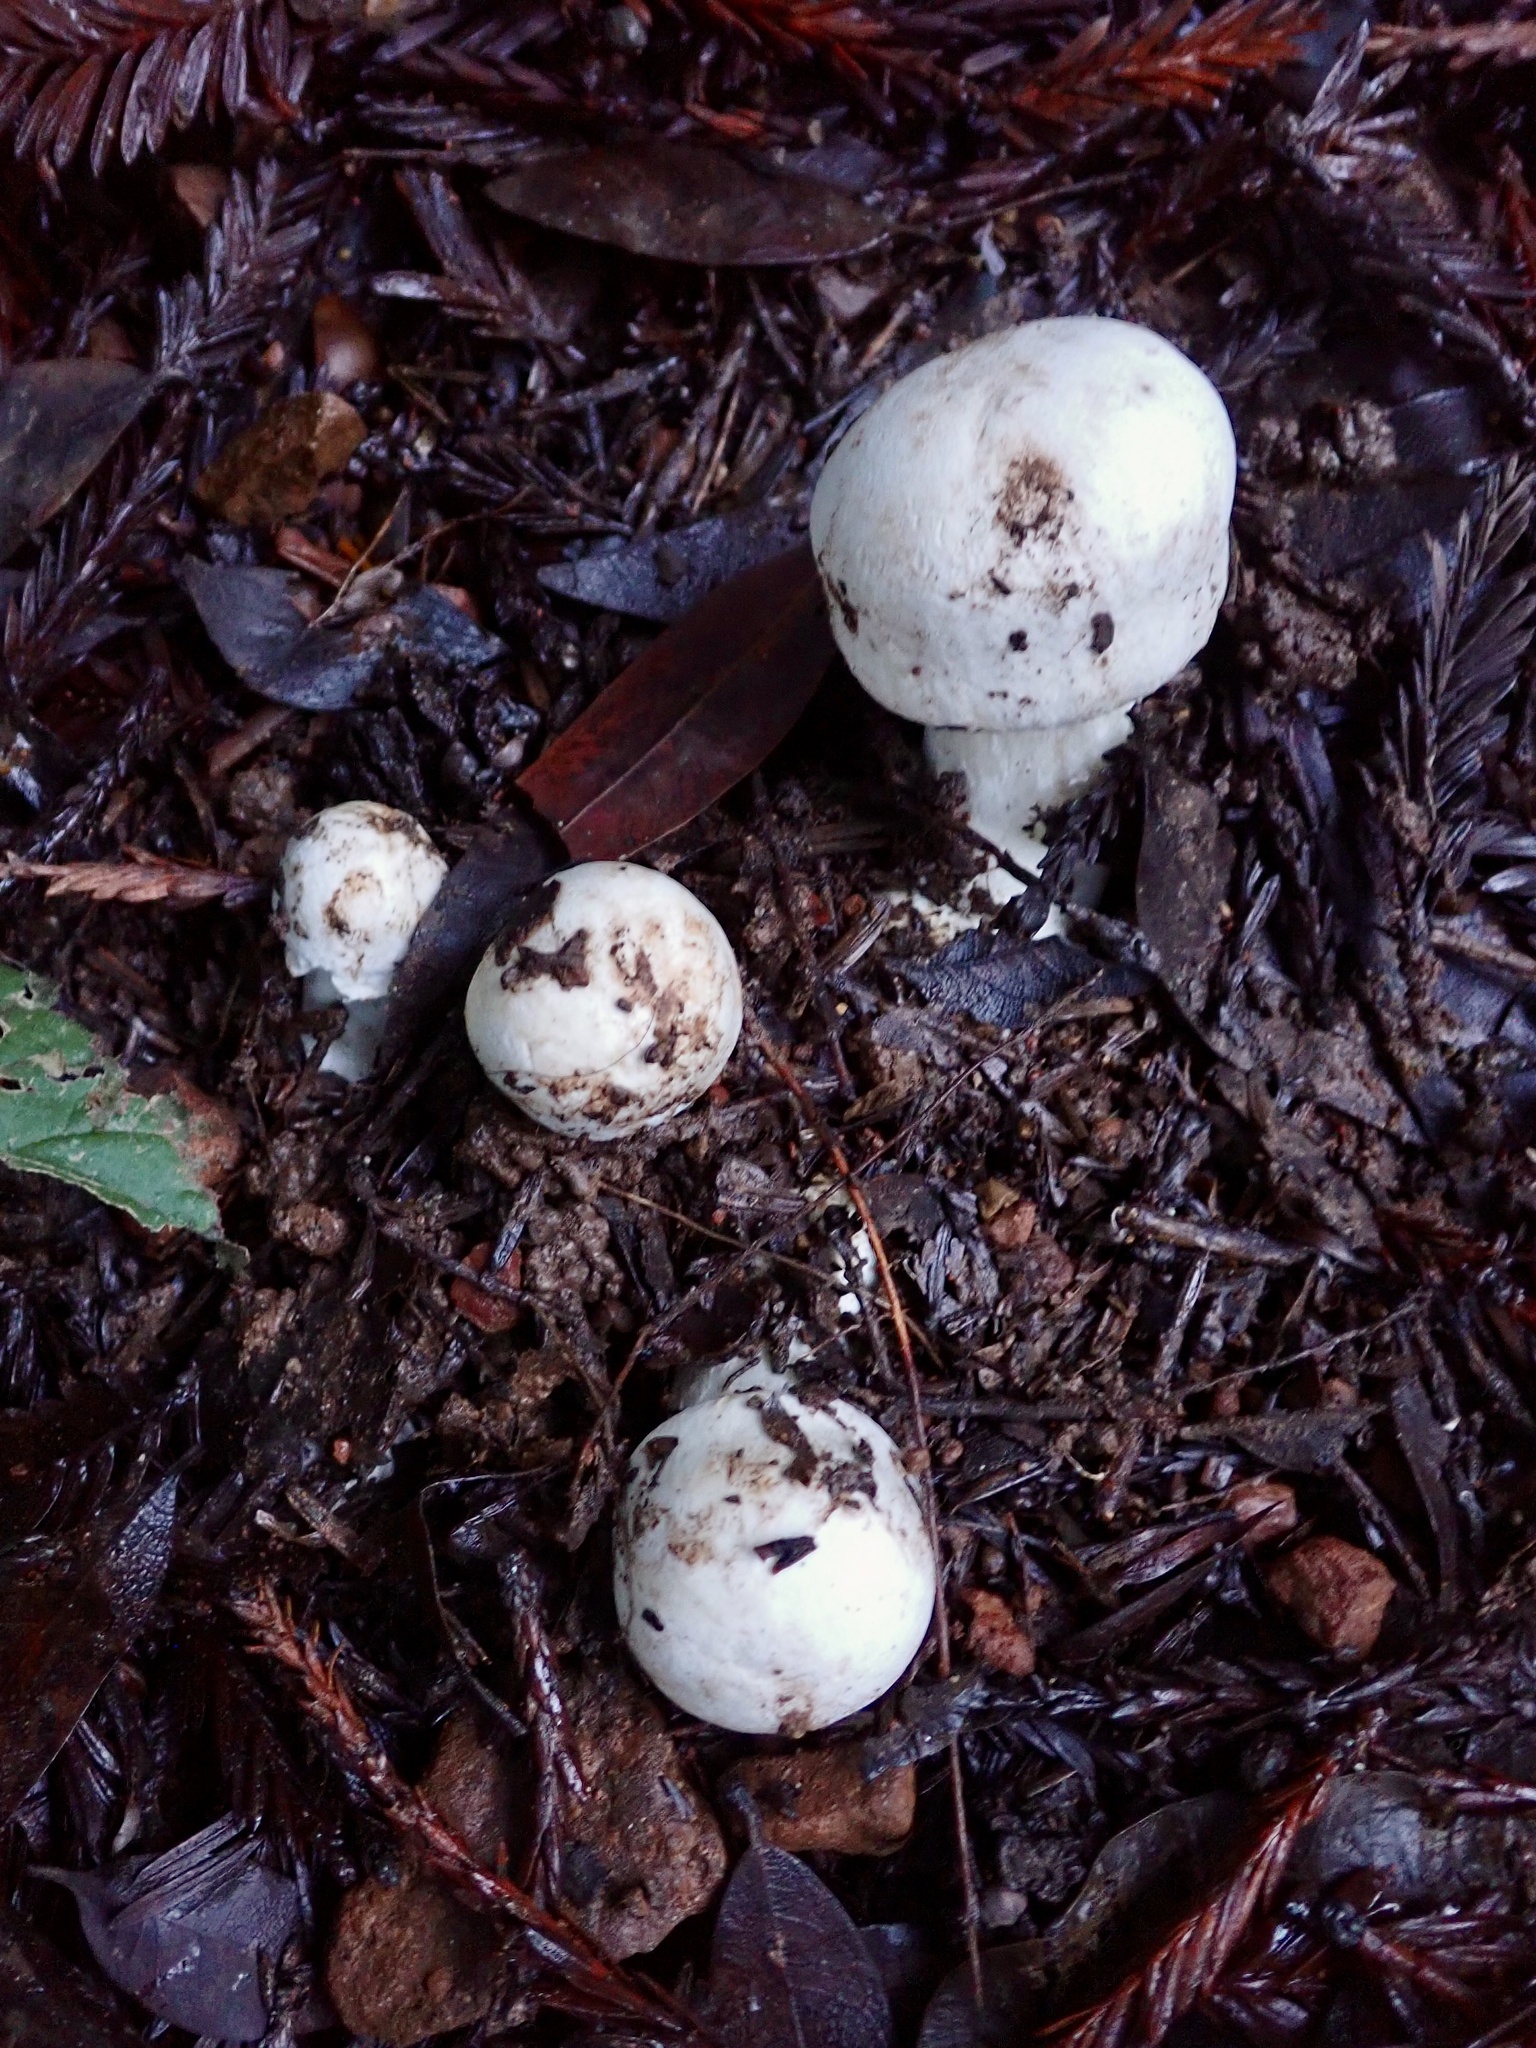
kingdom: Fungi
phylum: Basidiomycota
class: Agaricomycetes
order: Agaricales
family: Agaricaceae
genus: Agaricus
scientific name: Agaricus xanthodermus
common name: Yellow stainer
